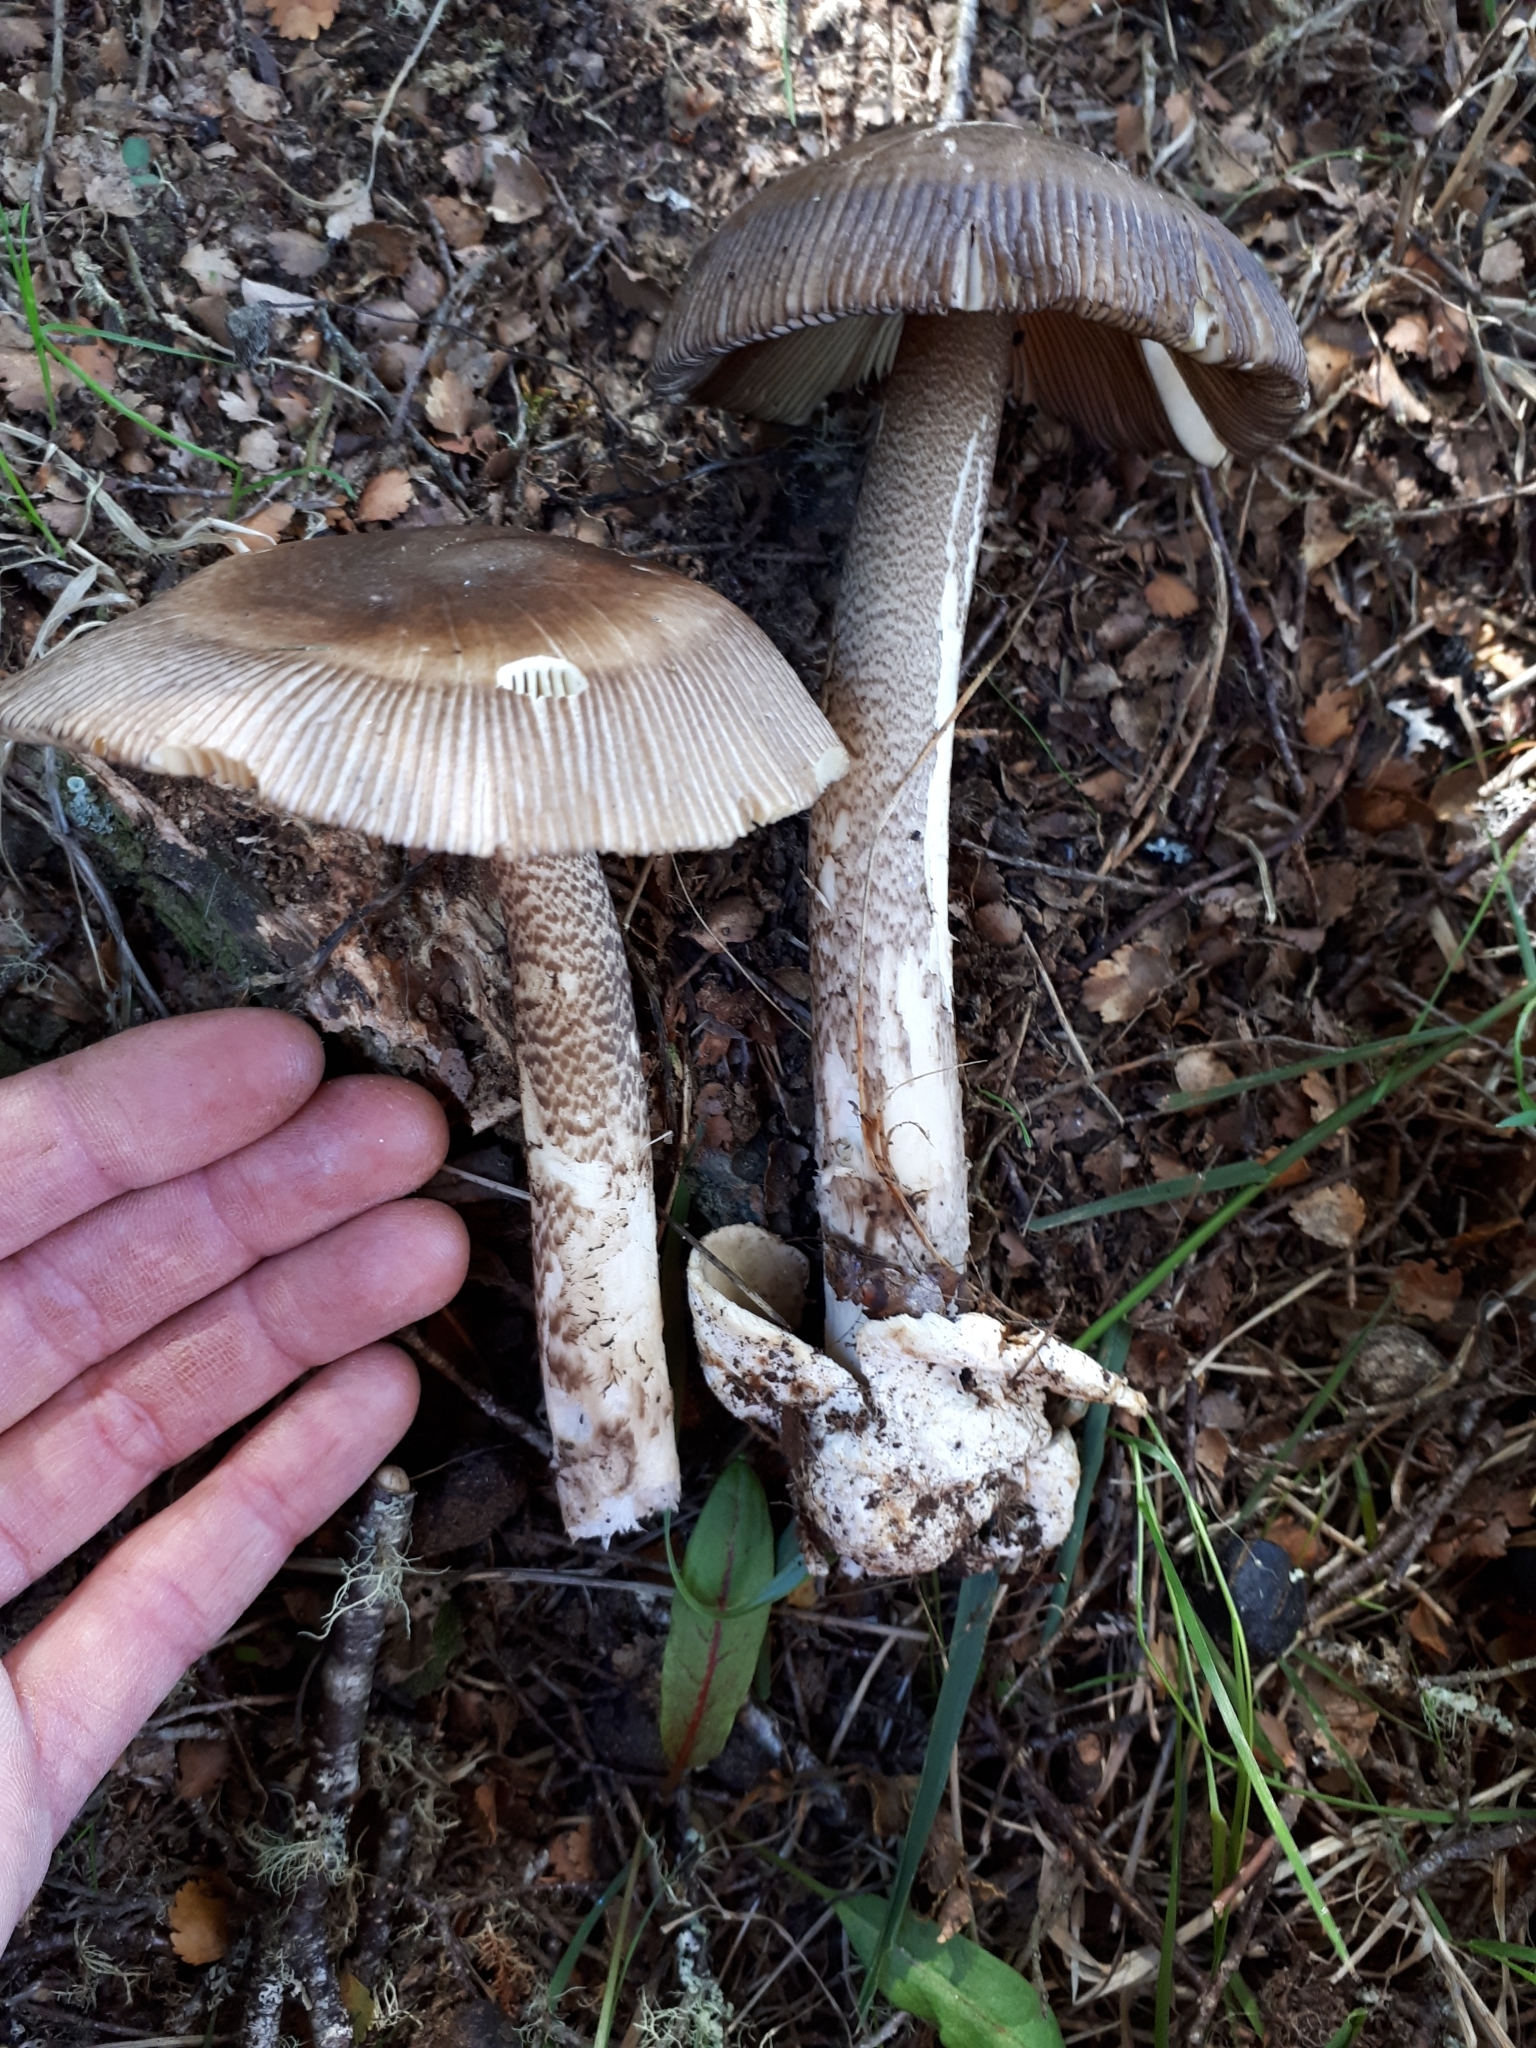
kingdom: Fungi
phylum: Basidiomycota
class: Agaricomycetes
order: Agaricales
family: Amanitaceae
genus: Amanita
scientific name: Amanita pekeoides
